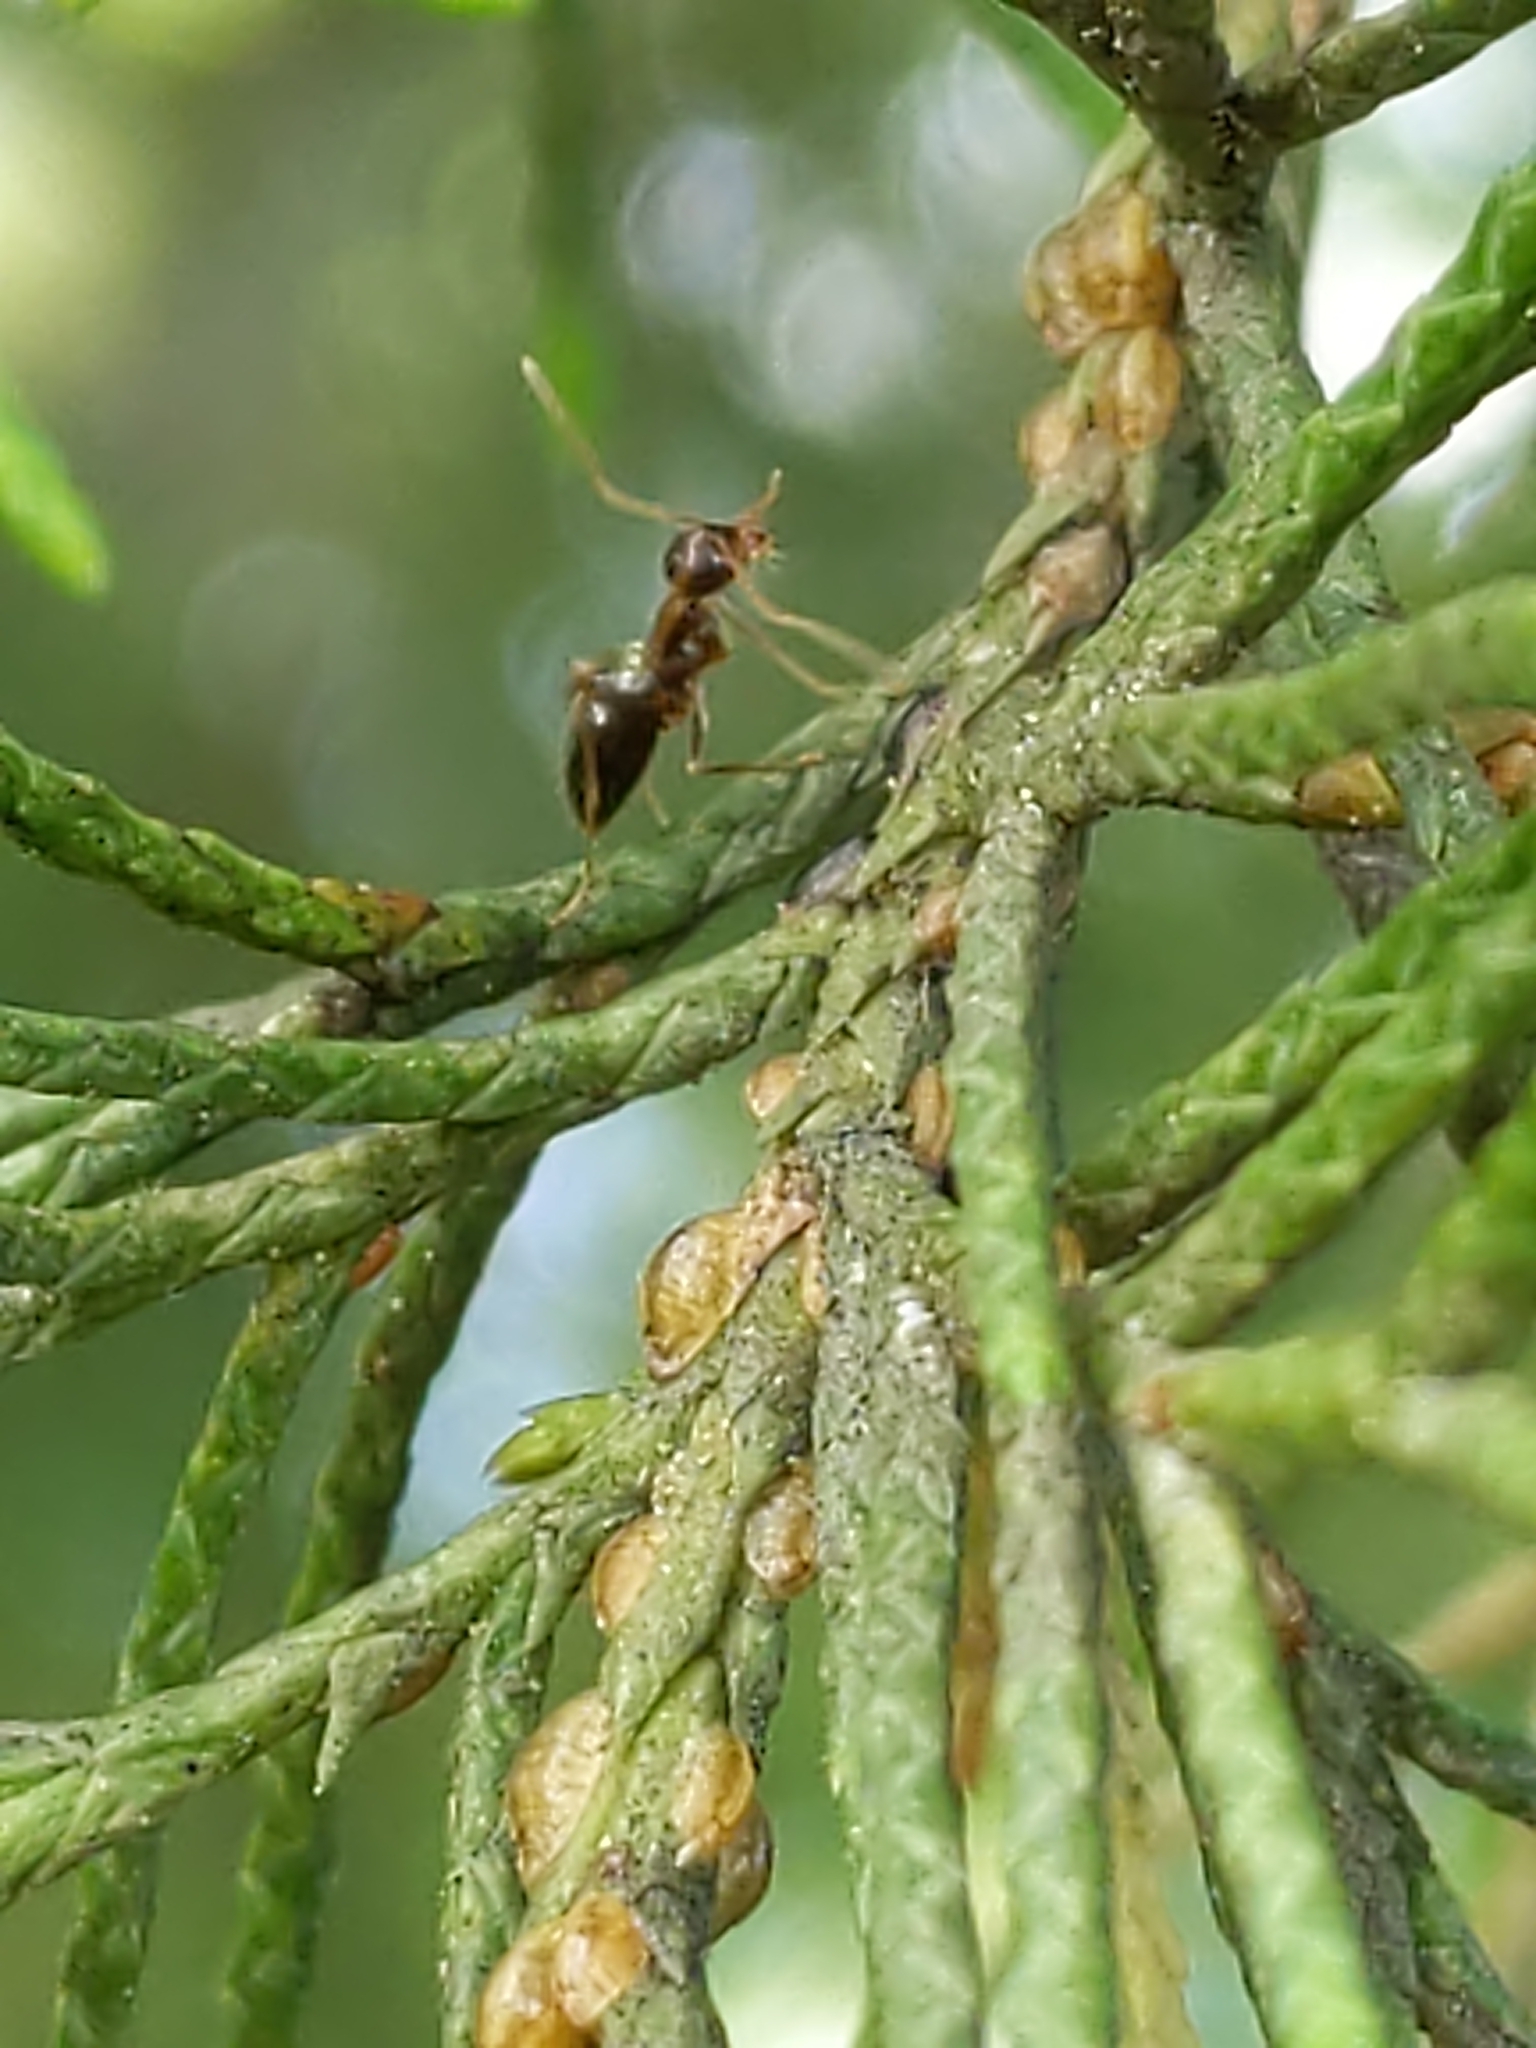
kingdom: Animalia
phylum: Arthropoda
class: Insecta
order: Hymenoptera
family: Formicidae
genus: Prenolepis
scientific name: Prenolepis imparis
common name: Small honey ant
